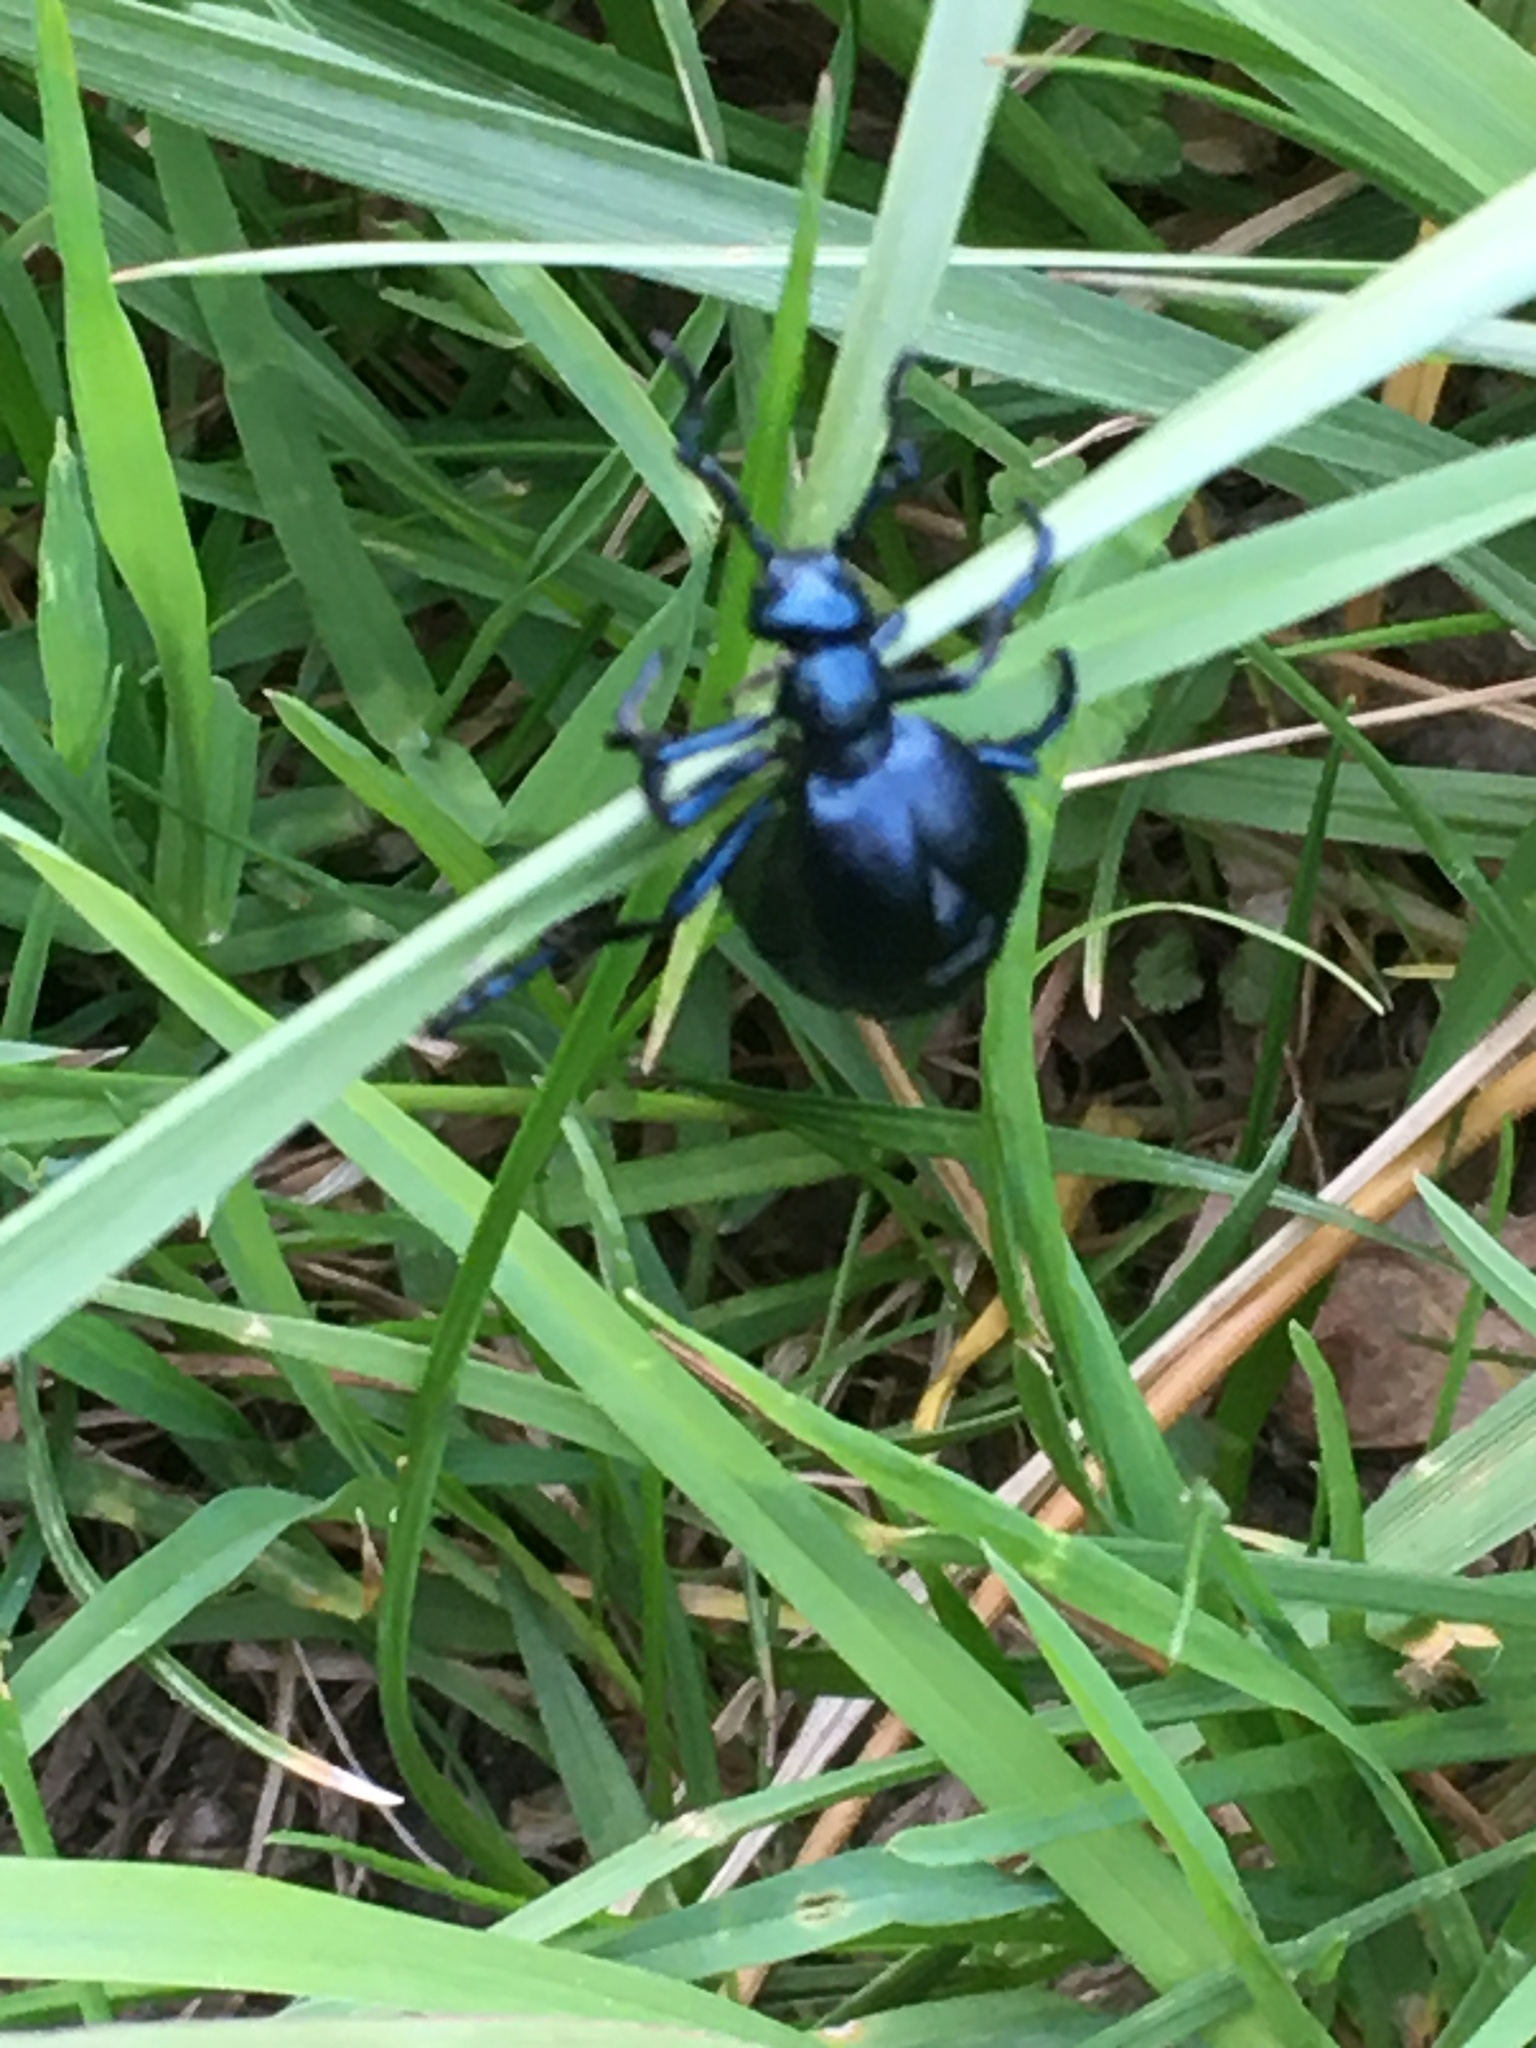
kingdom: Animalia
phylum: Arthropoda
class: Insecta
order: Coleoptera
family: Meloidae
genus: Meloe
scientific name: Meloe violaceus
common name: Violet oil-beetle
